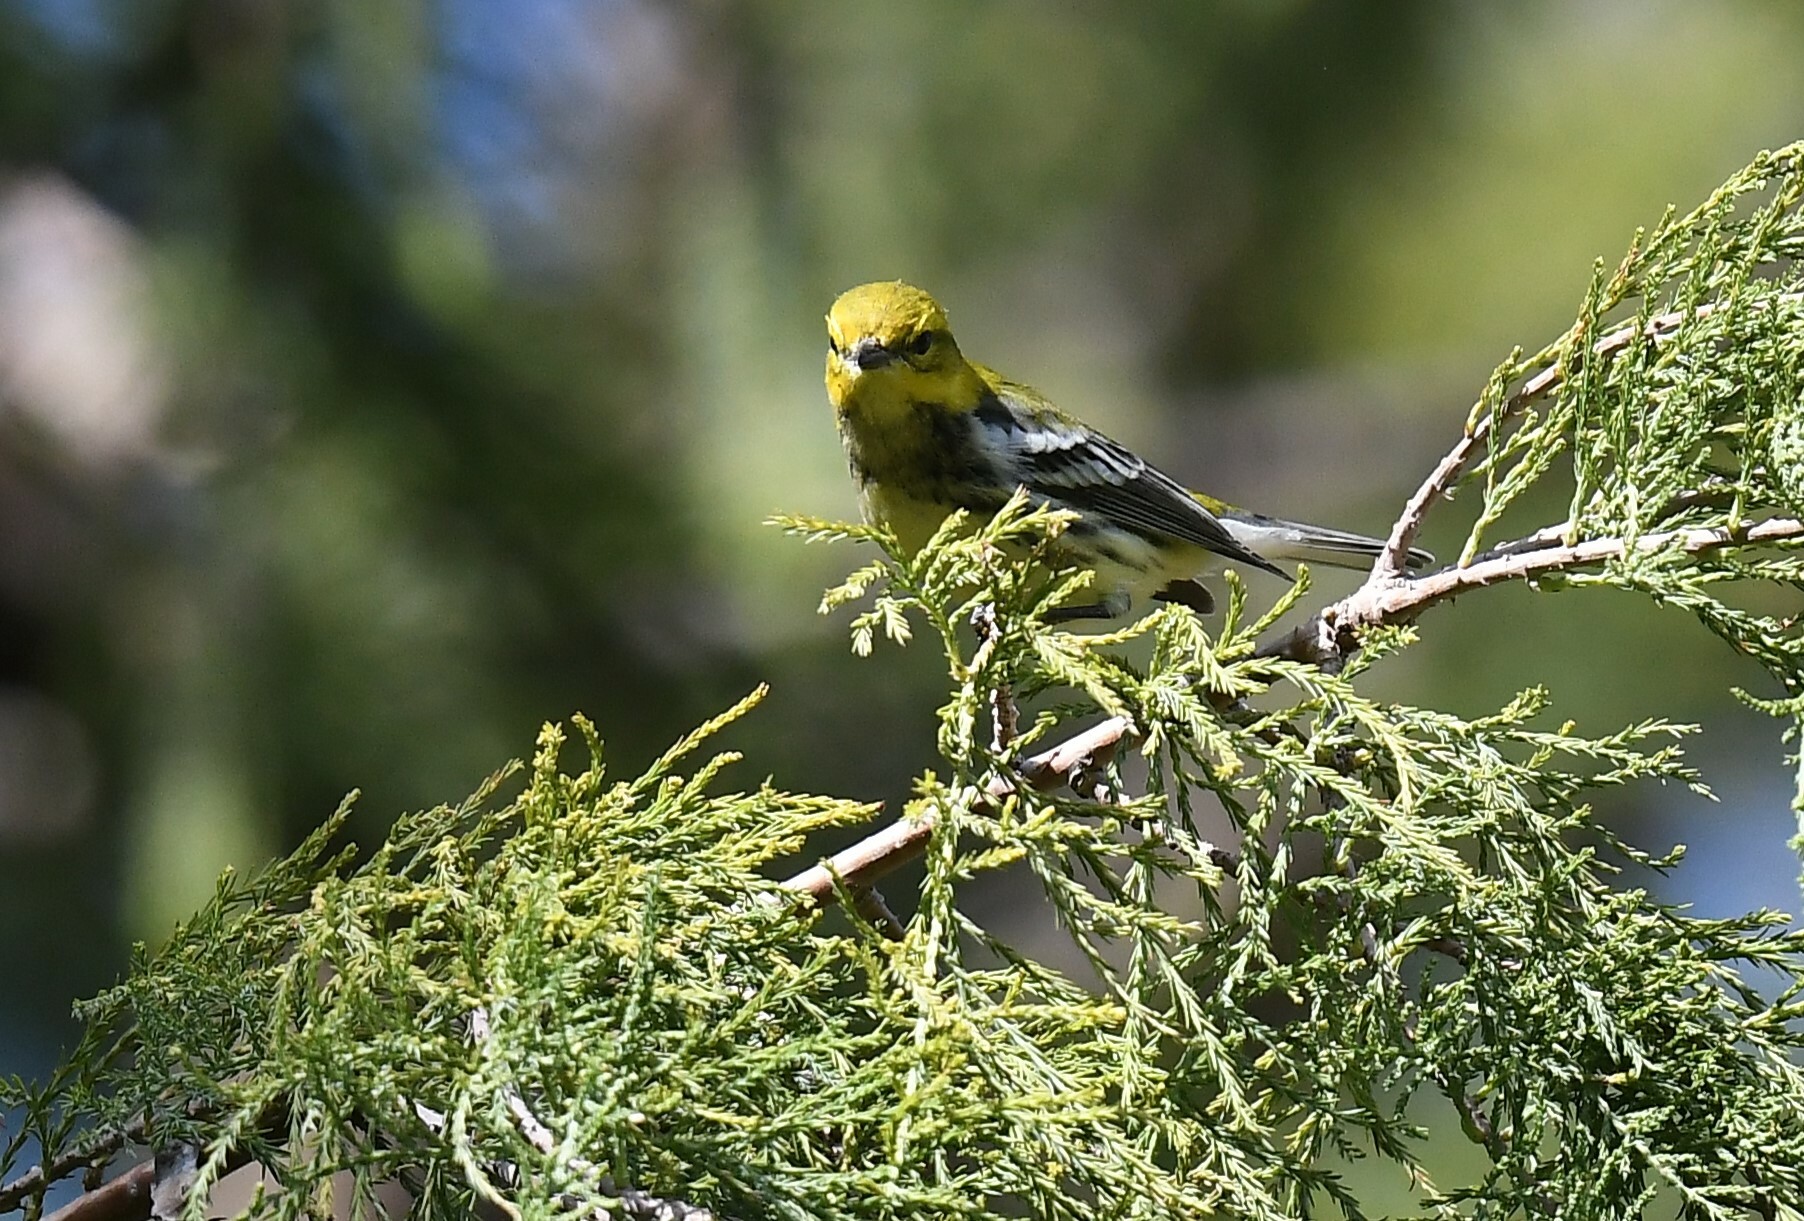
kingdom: Animalia
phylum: Chordata
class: Aves
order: Passeriformes
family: Parulidae
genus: Setophaga
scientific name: Setophaga virens
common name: Black-throated green warbler
